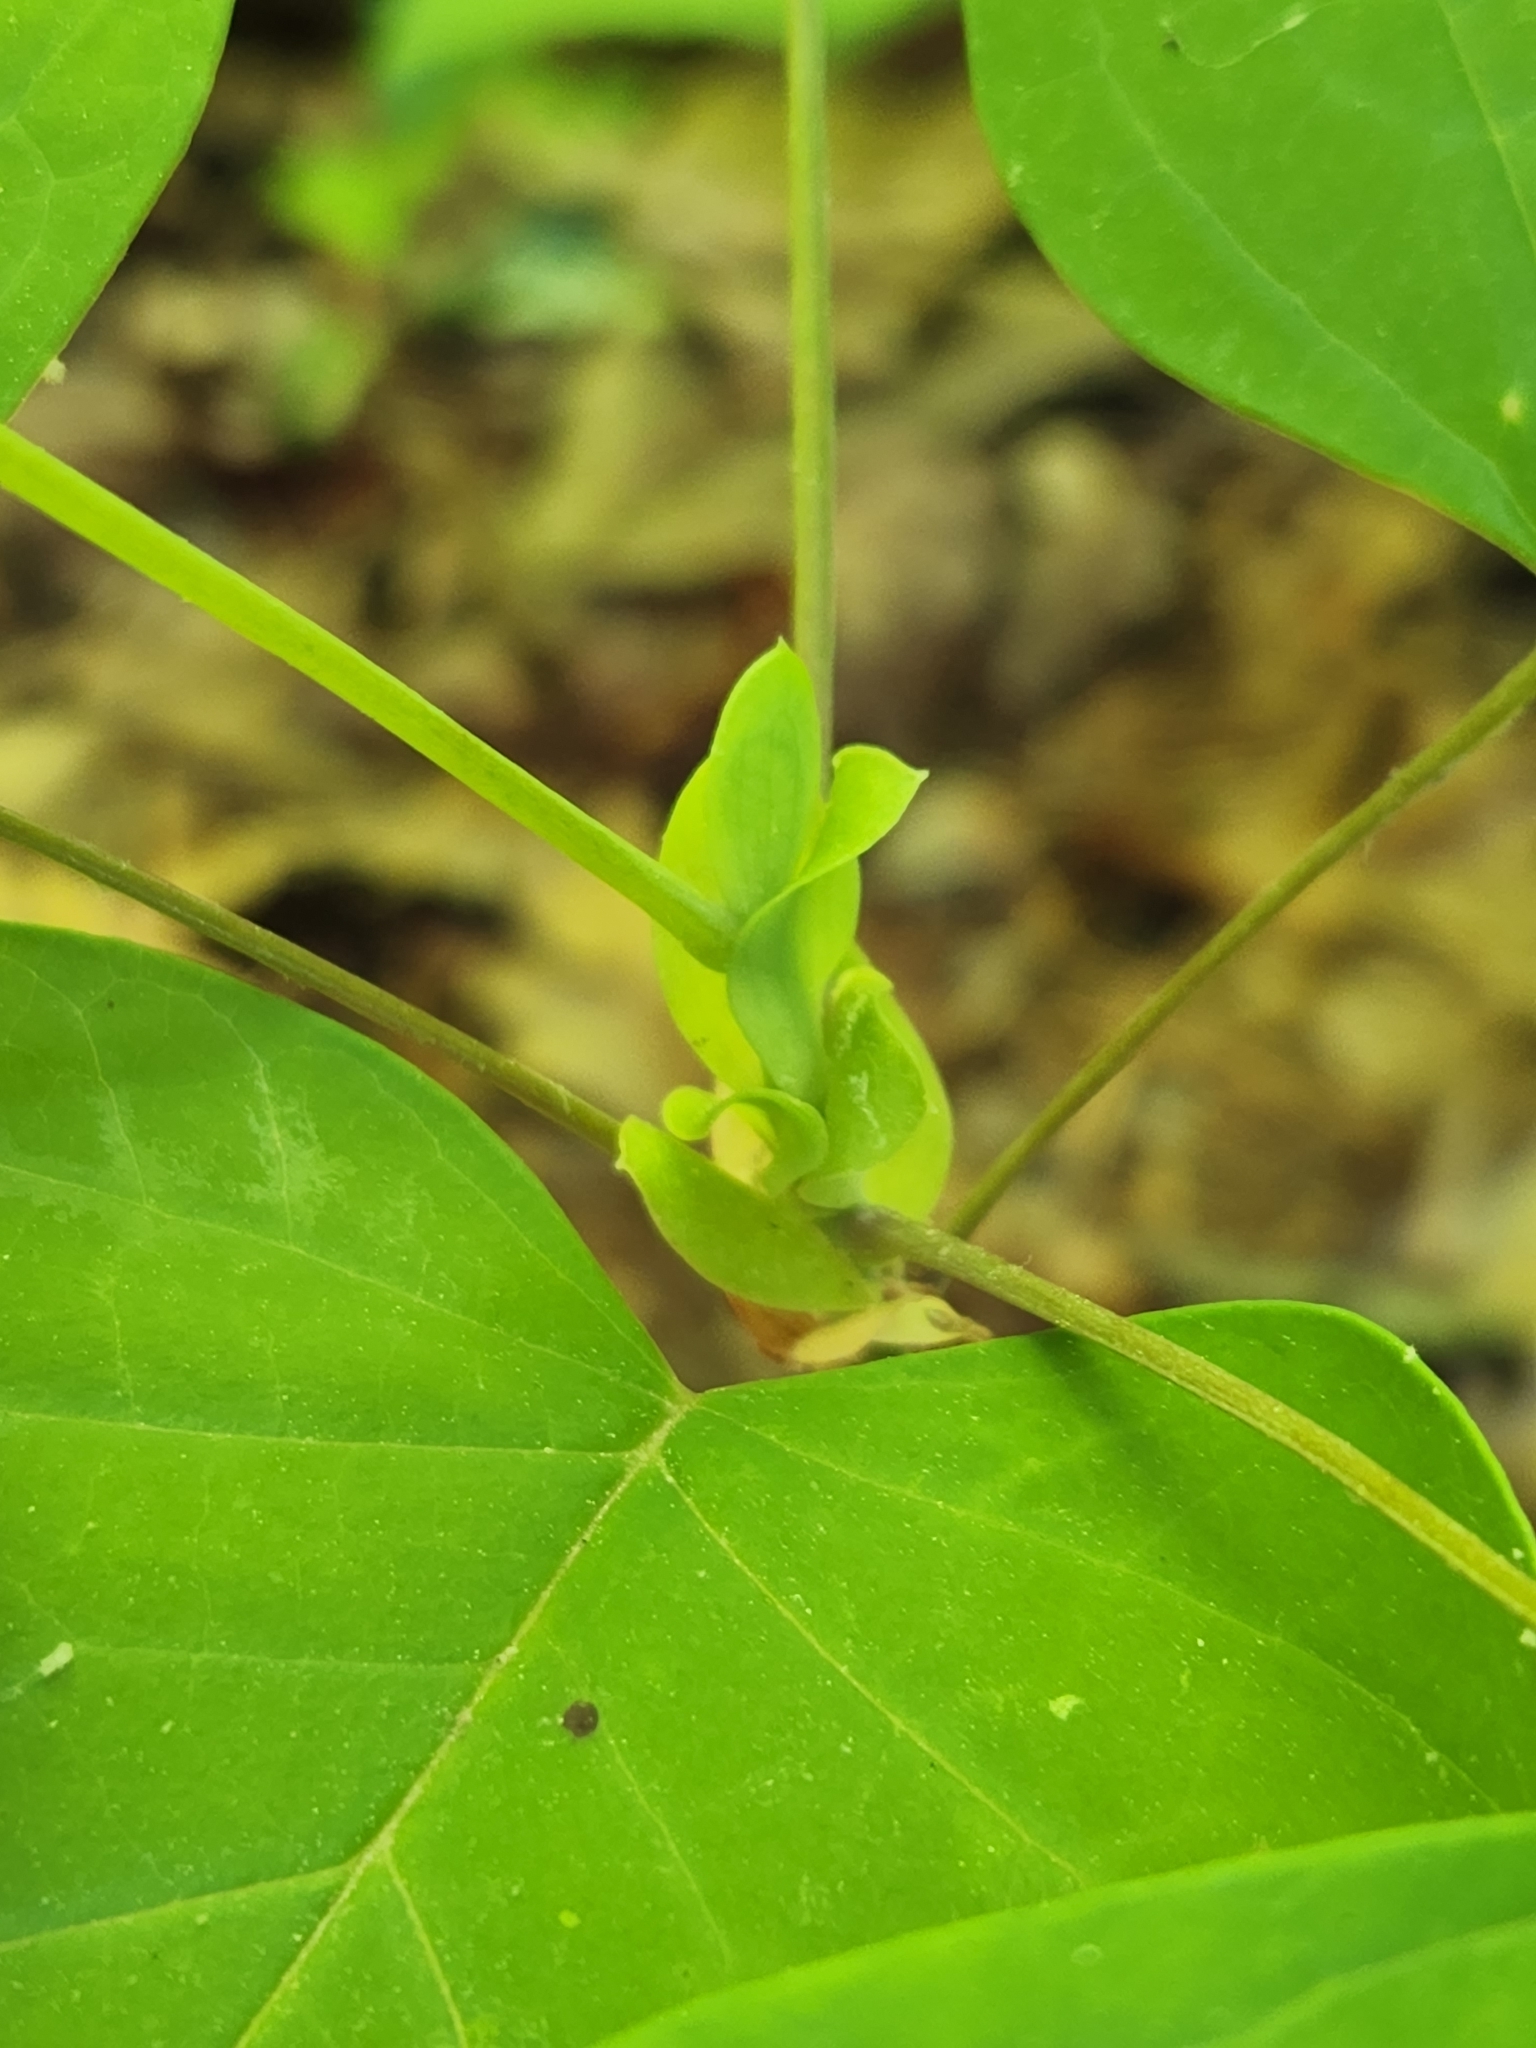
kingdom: Plantae
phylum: Tracheophyta
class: Magnoliopsida
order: Magnoliales
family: Magnoliaceae
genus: Liriodendron
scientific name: Liriodendron tulipifera
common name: Tulip tree
